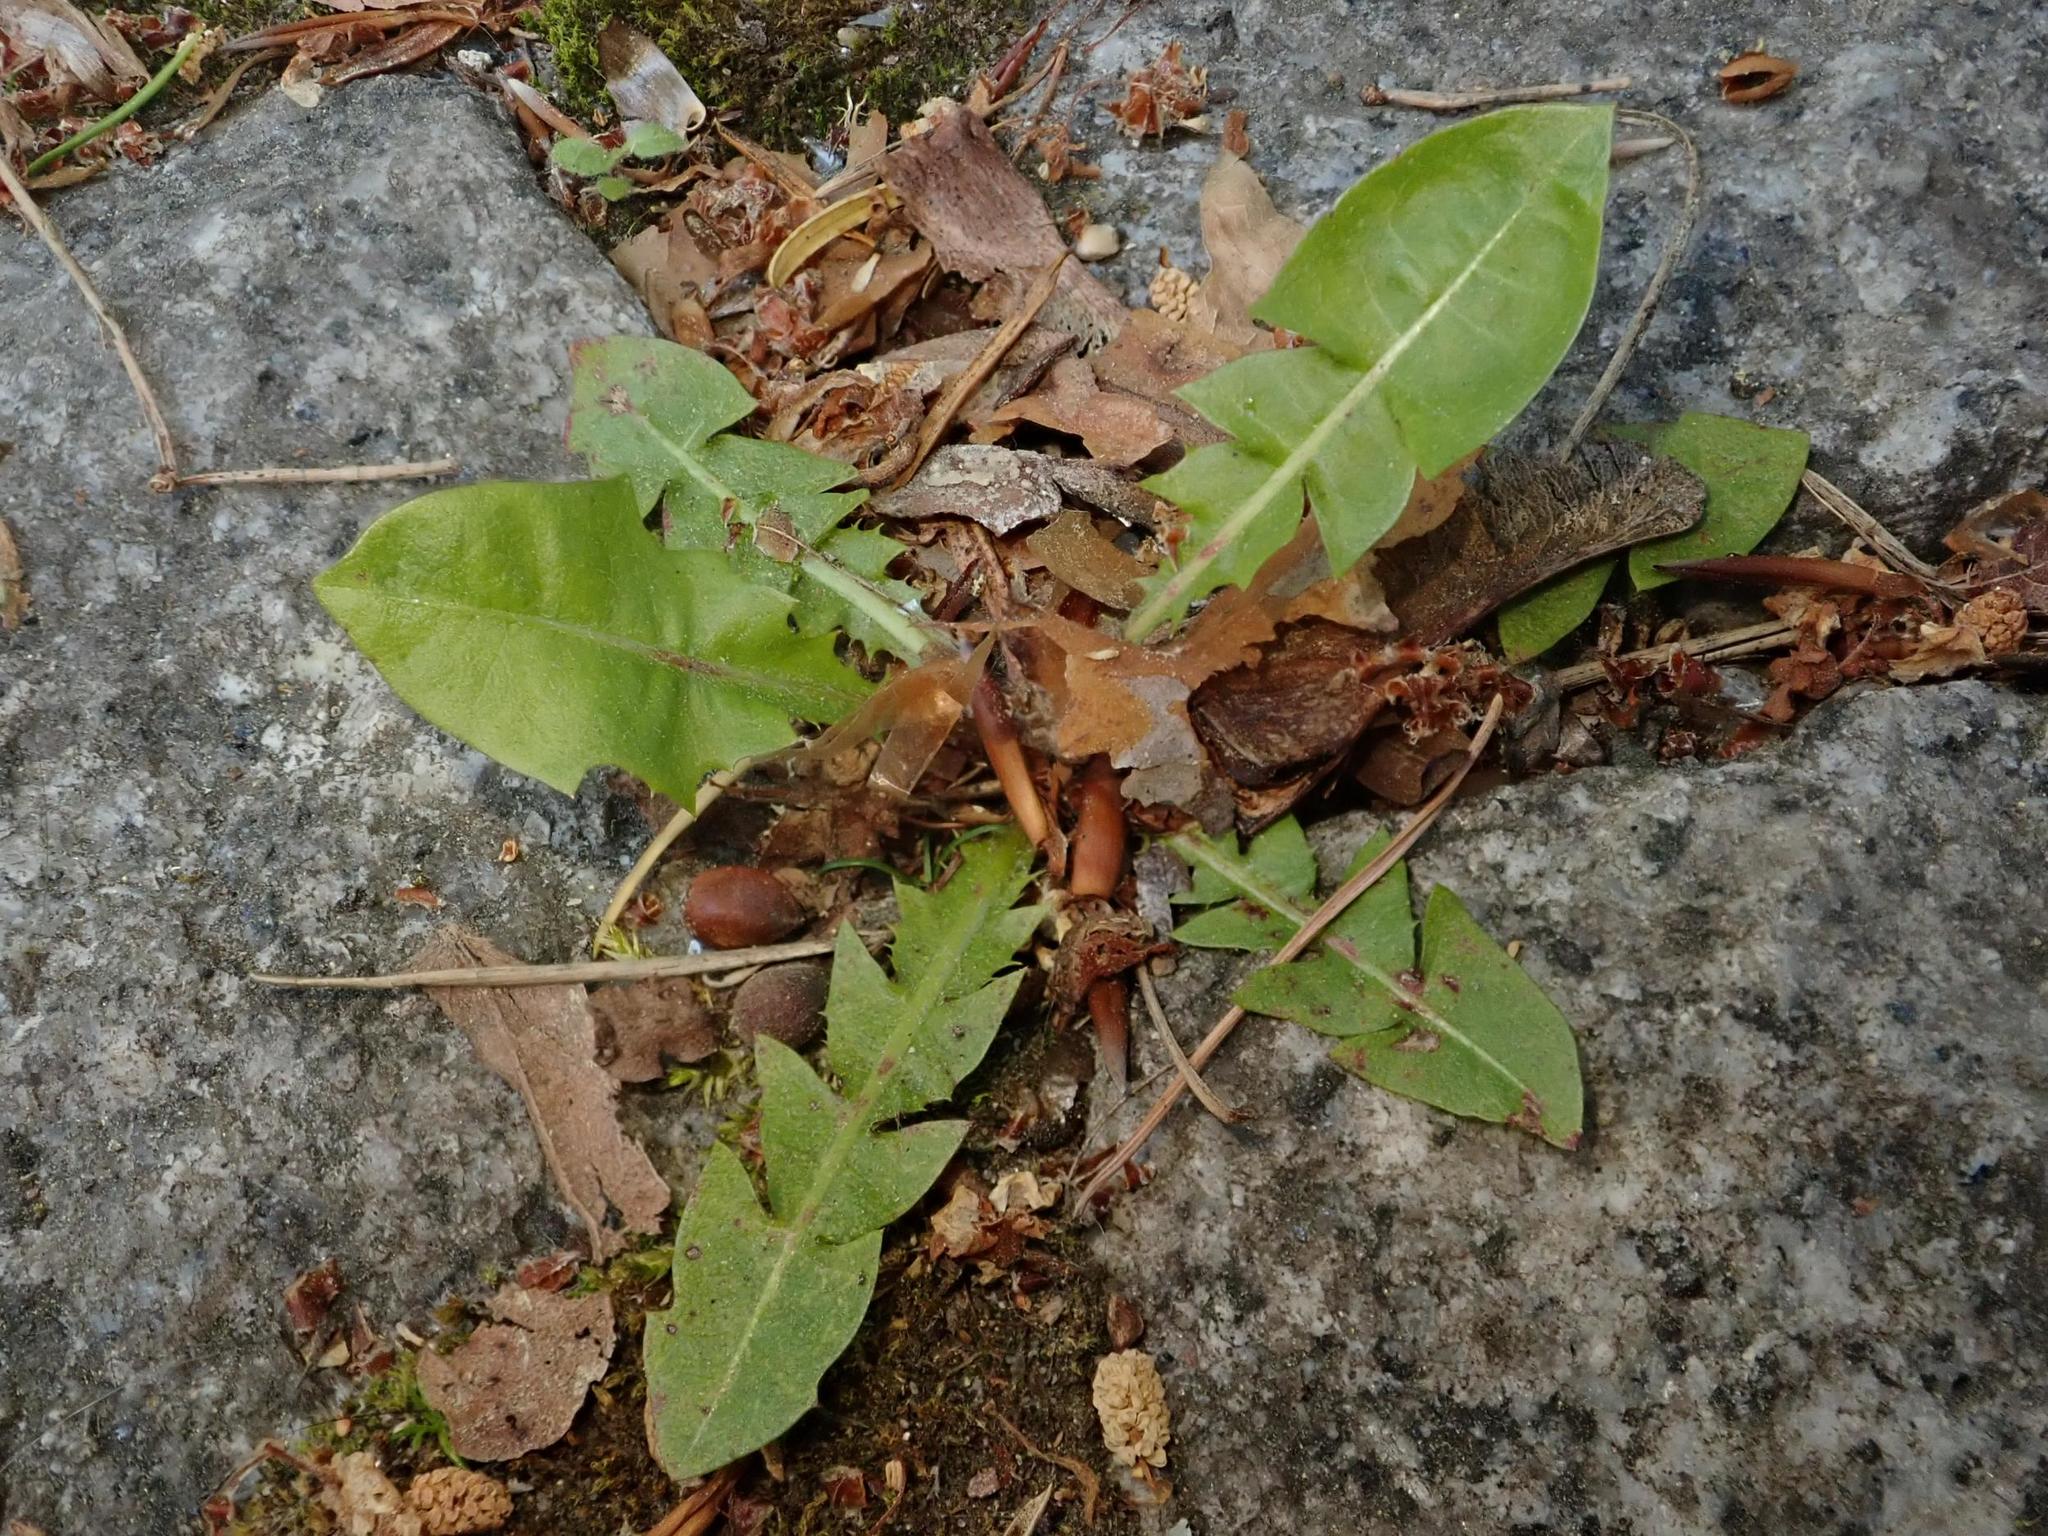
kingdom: Plantae
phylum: Tracheophyta
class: Magnoliopsida
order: Asterales
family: Asteraceae
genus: Taraxacum
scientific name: Taraxacum officinale
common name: Common dandelion
